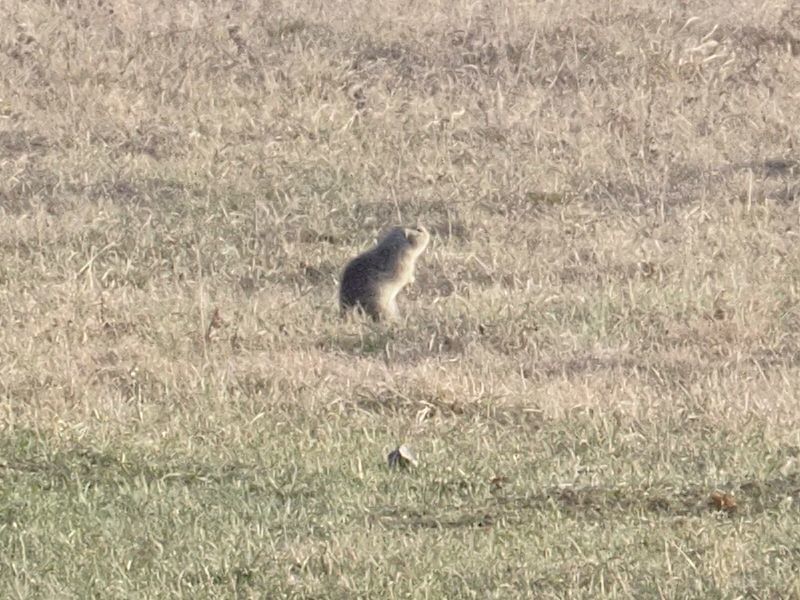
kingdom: Animalia
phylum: Chordata
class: Mammalia
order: Rodentia
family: Sciuridae
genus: Spermophilus
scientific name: Spermophilus citellus
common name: European ground squirrel
